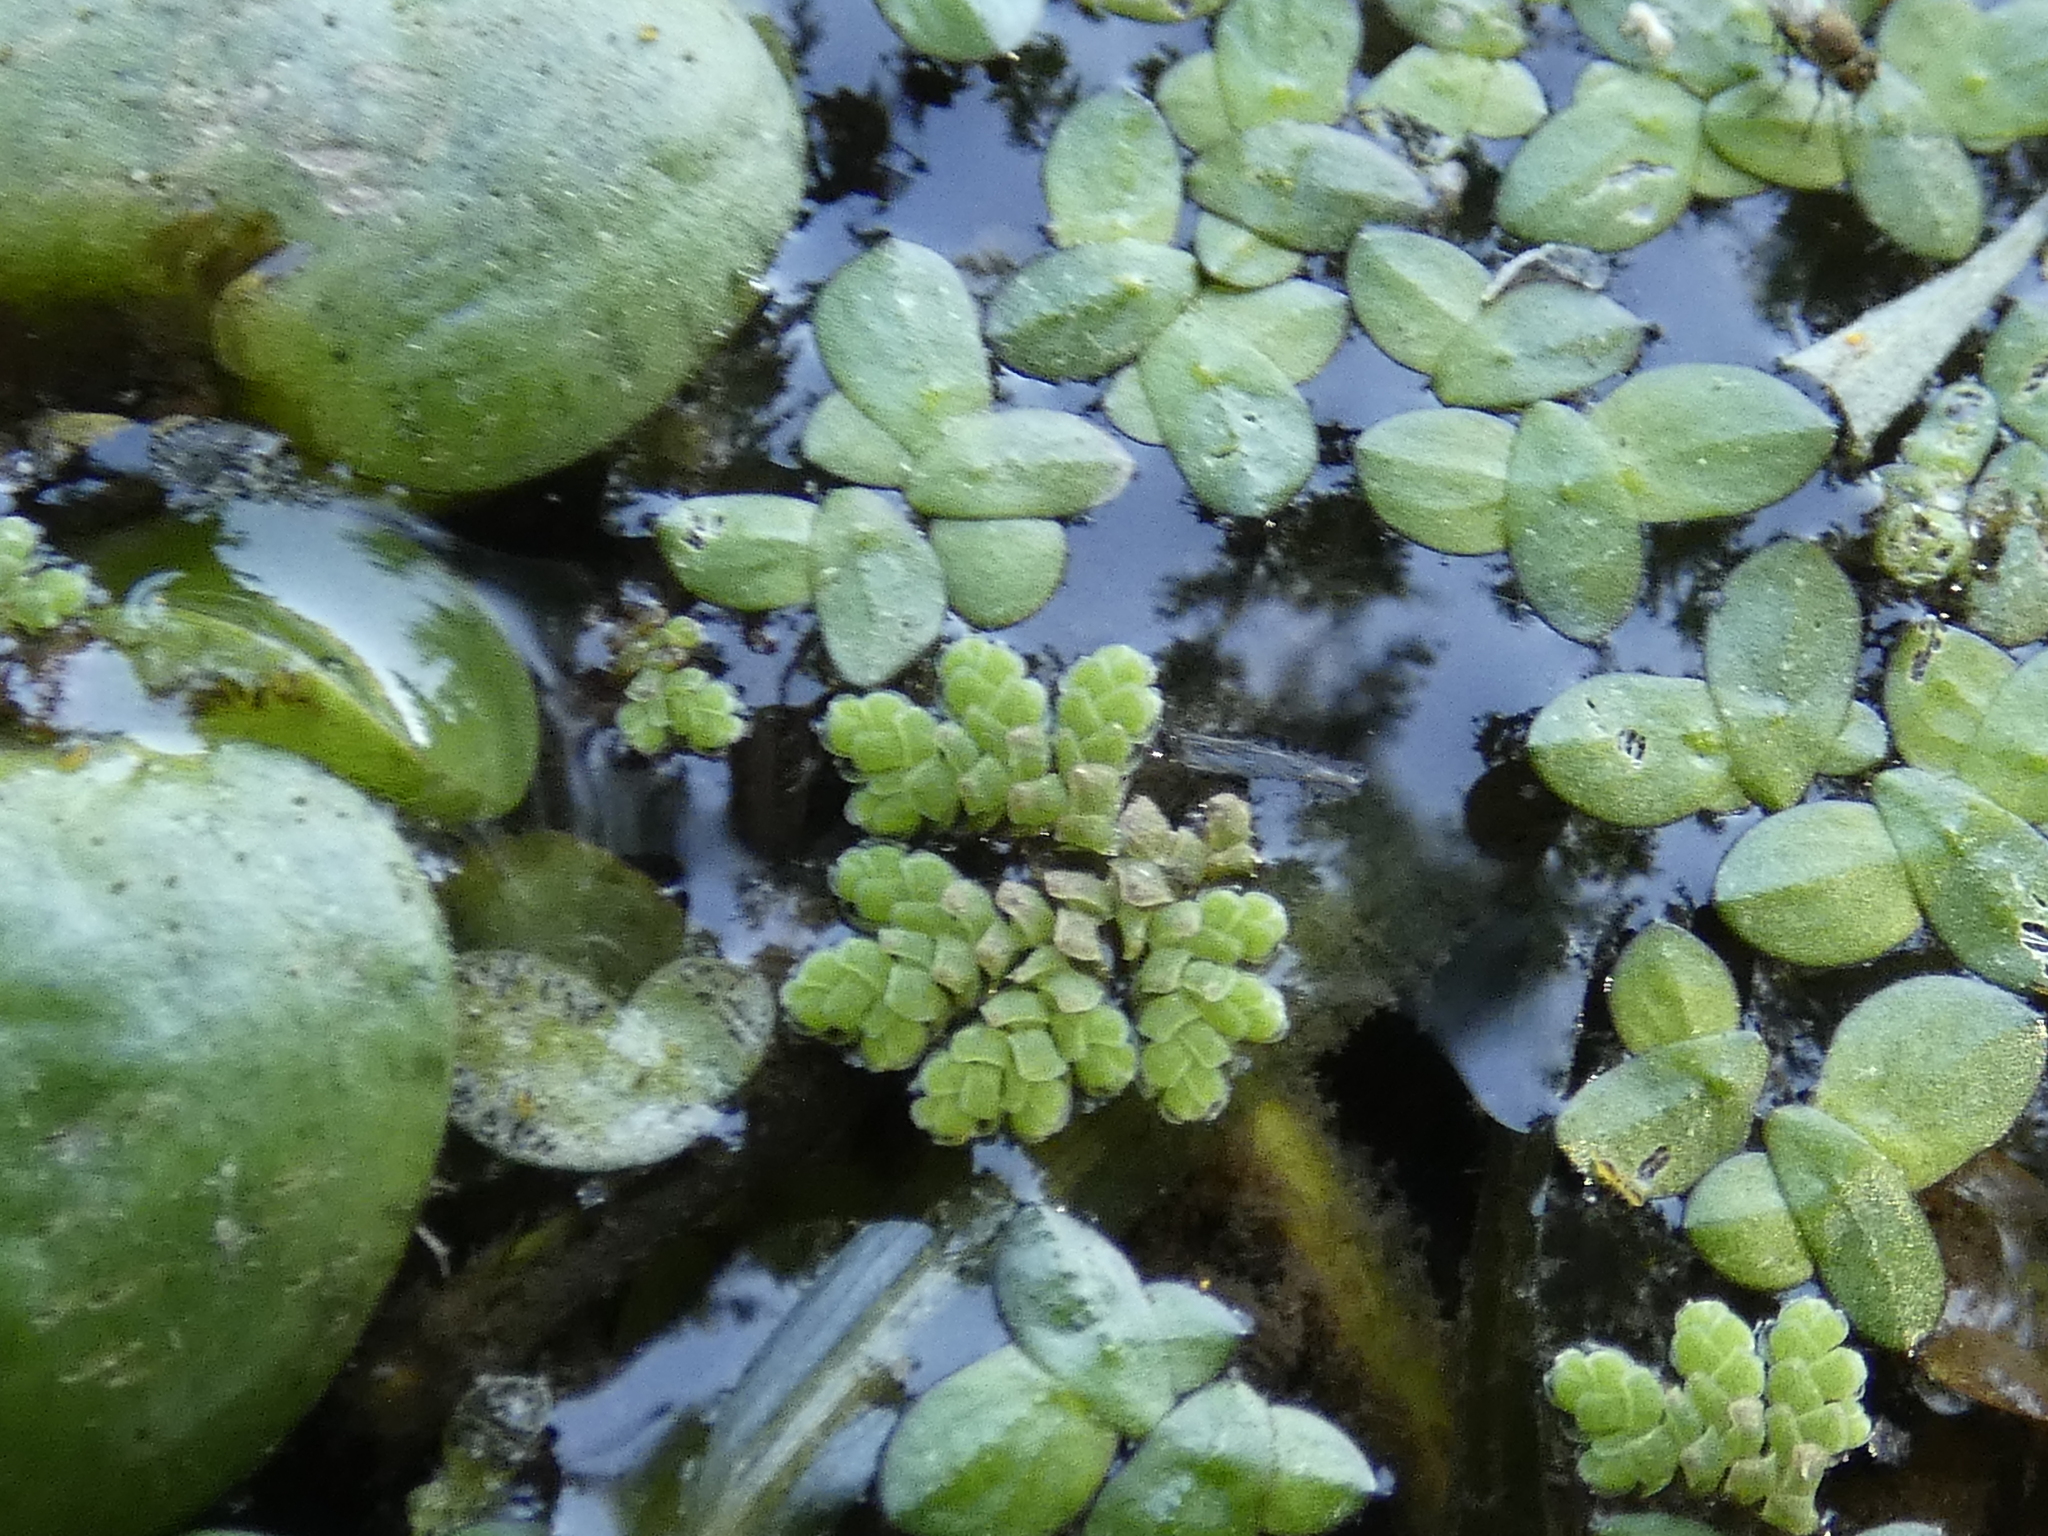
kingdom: Plantae
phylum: Tracheophyta
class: Polypodiopsida
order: Salviniales
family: Salviniaceae
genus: Azolla
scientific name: Azolla filiculoides
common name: Water fern
